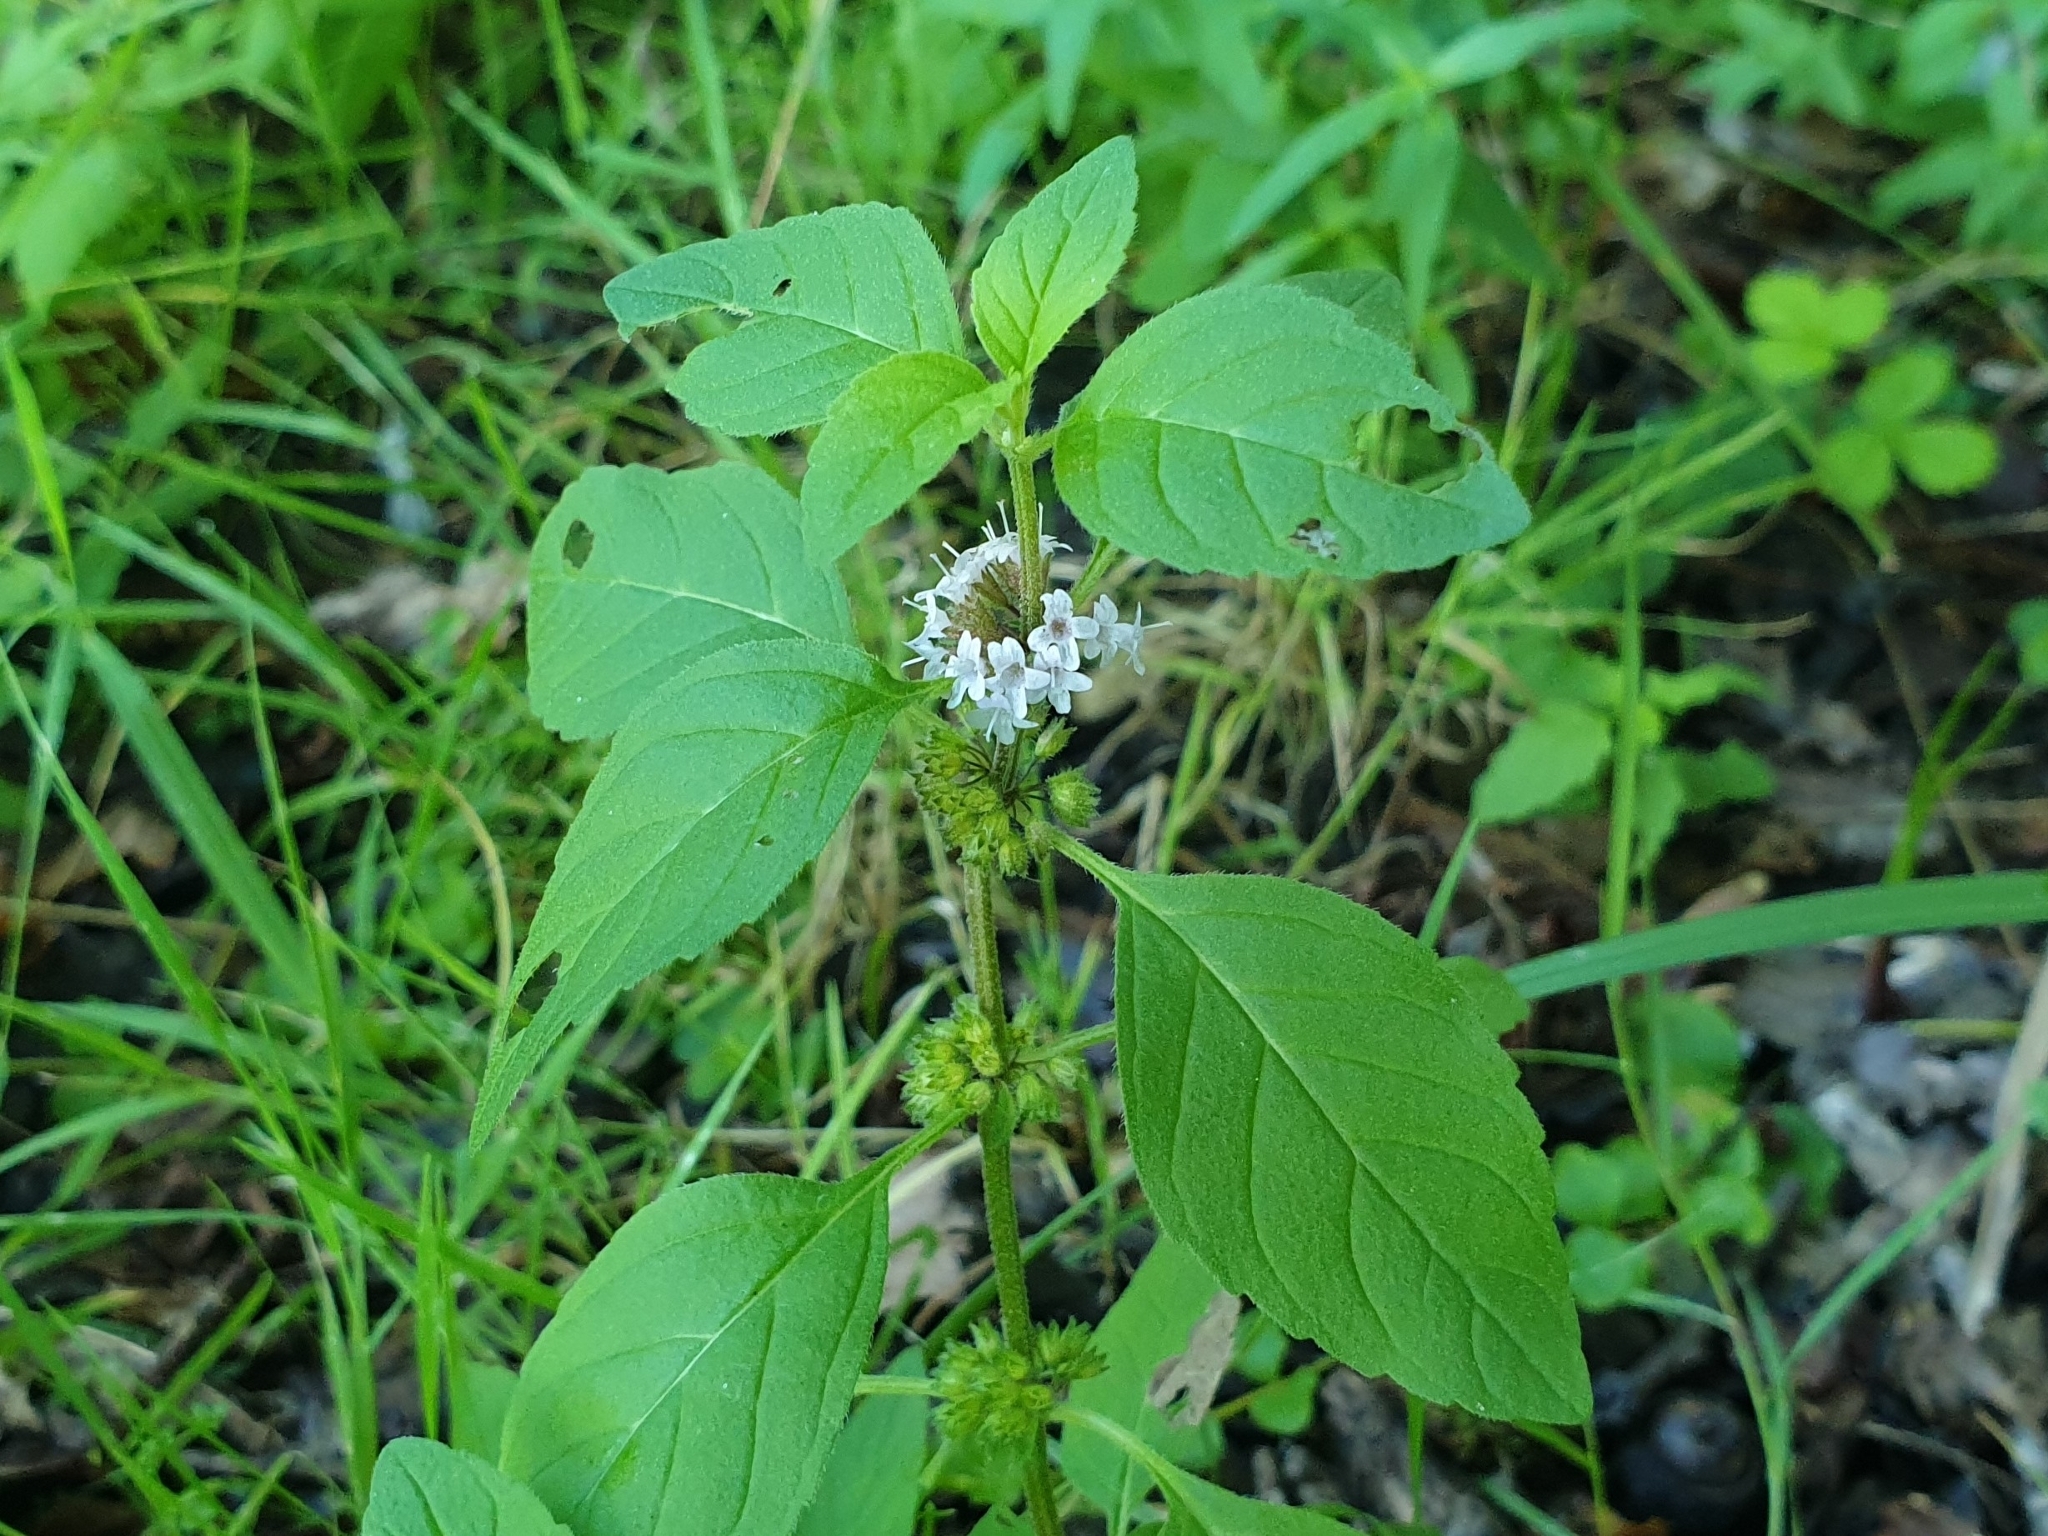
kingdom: Plantae
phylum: Tracheophyta
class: Magnoliopsida
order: Lamiales
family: Lamiaceae
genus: Mentha
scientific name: Mentha arvensis
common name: Corn mint
